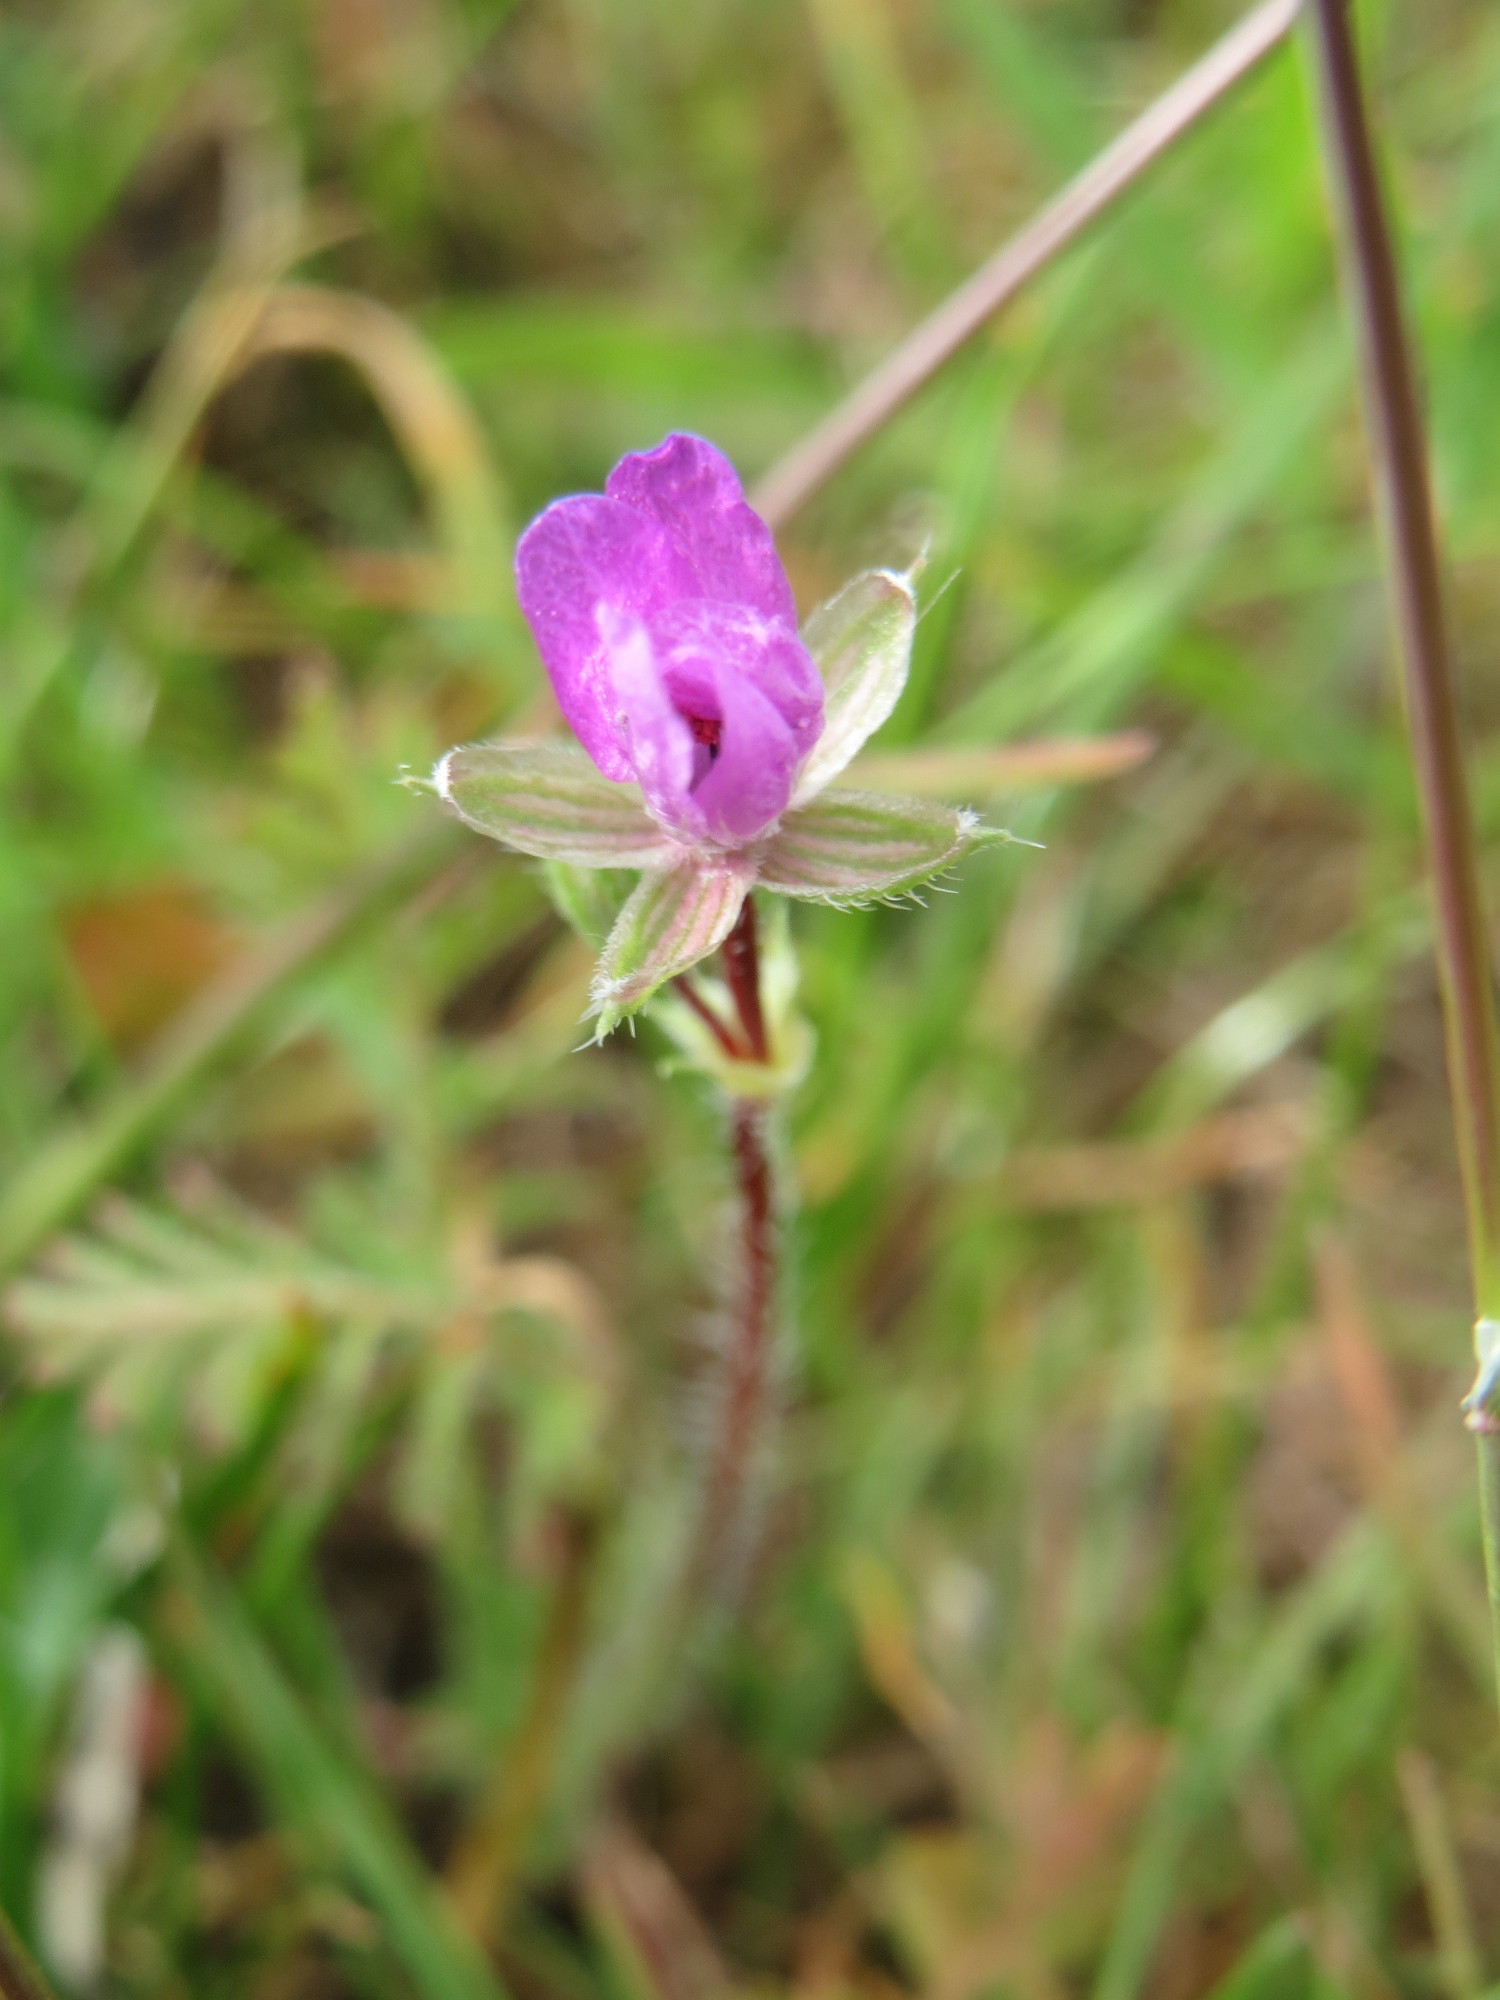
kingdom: Plantae
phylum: Tracheophyta
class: Magnoliopsida
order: Geraniales
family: Geraniaceae
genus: Erodium
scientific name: Erodium cicutarium
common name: Common stork's-bill
